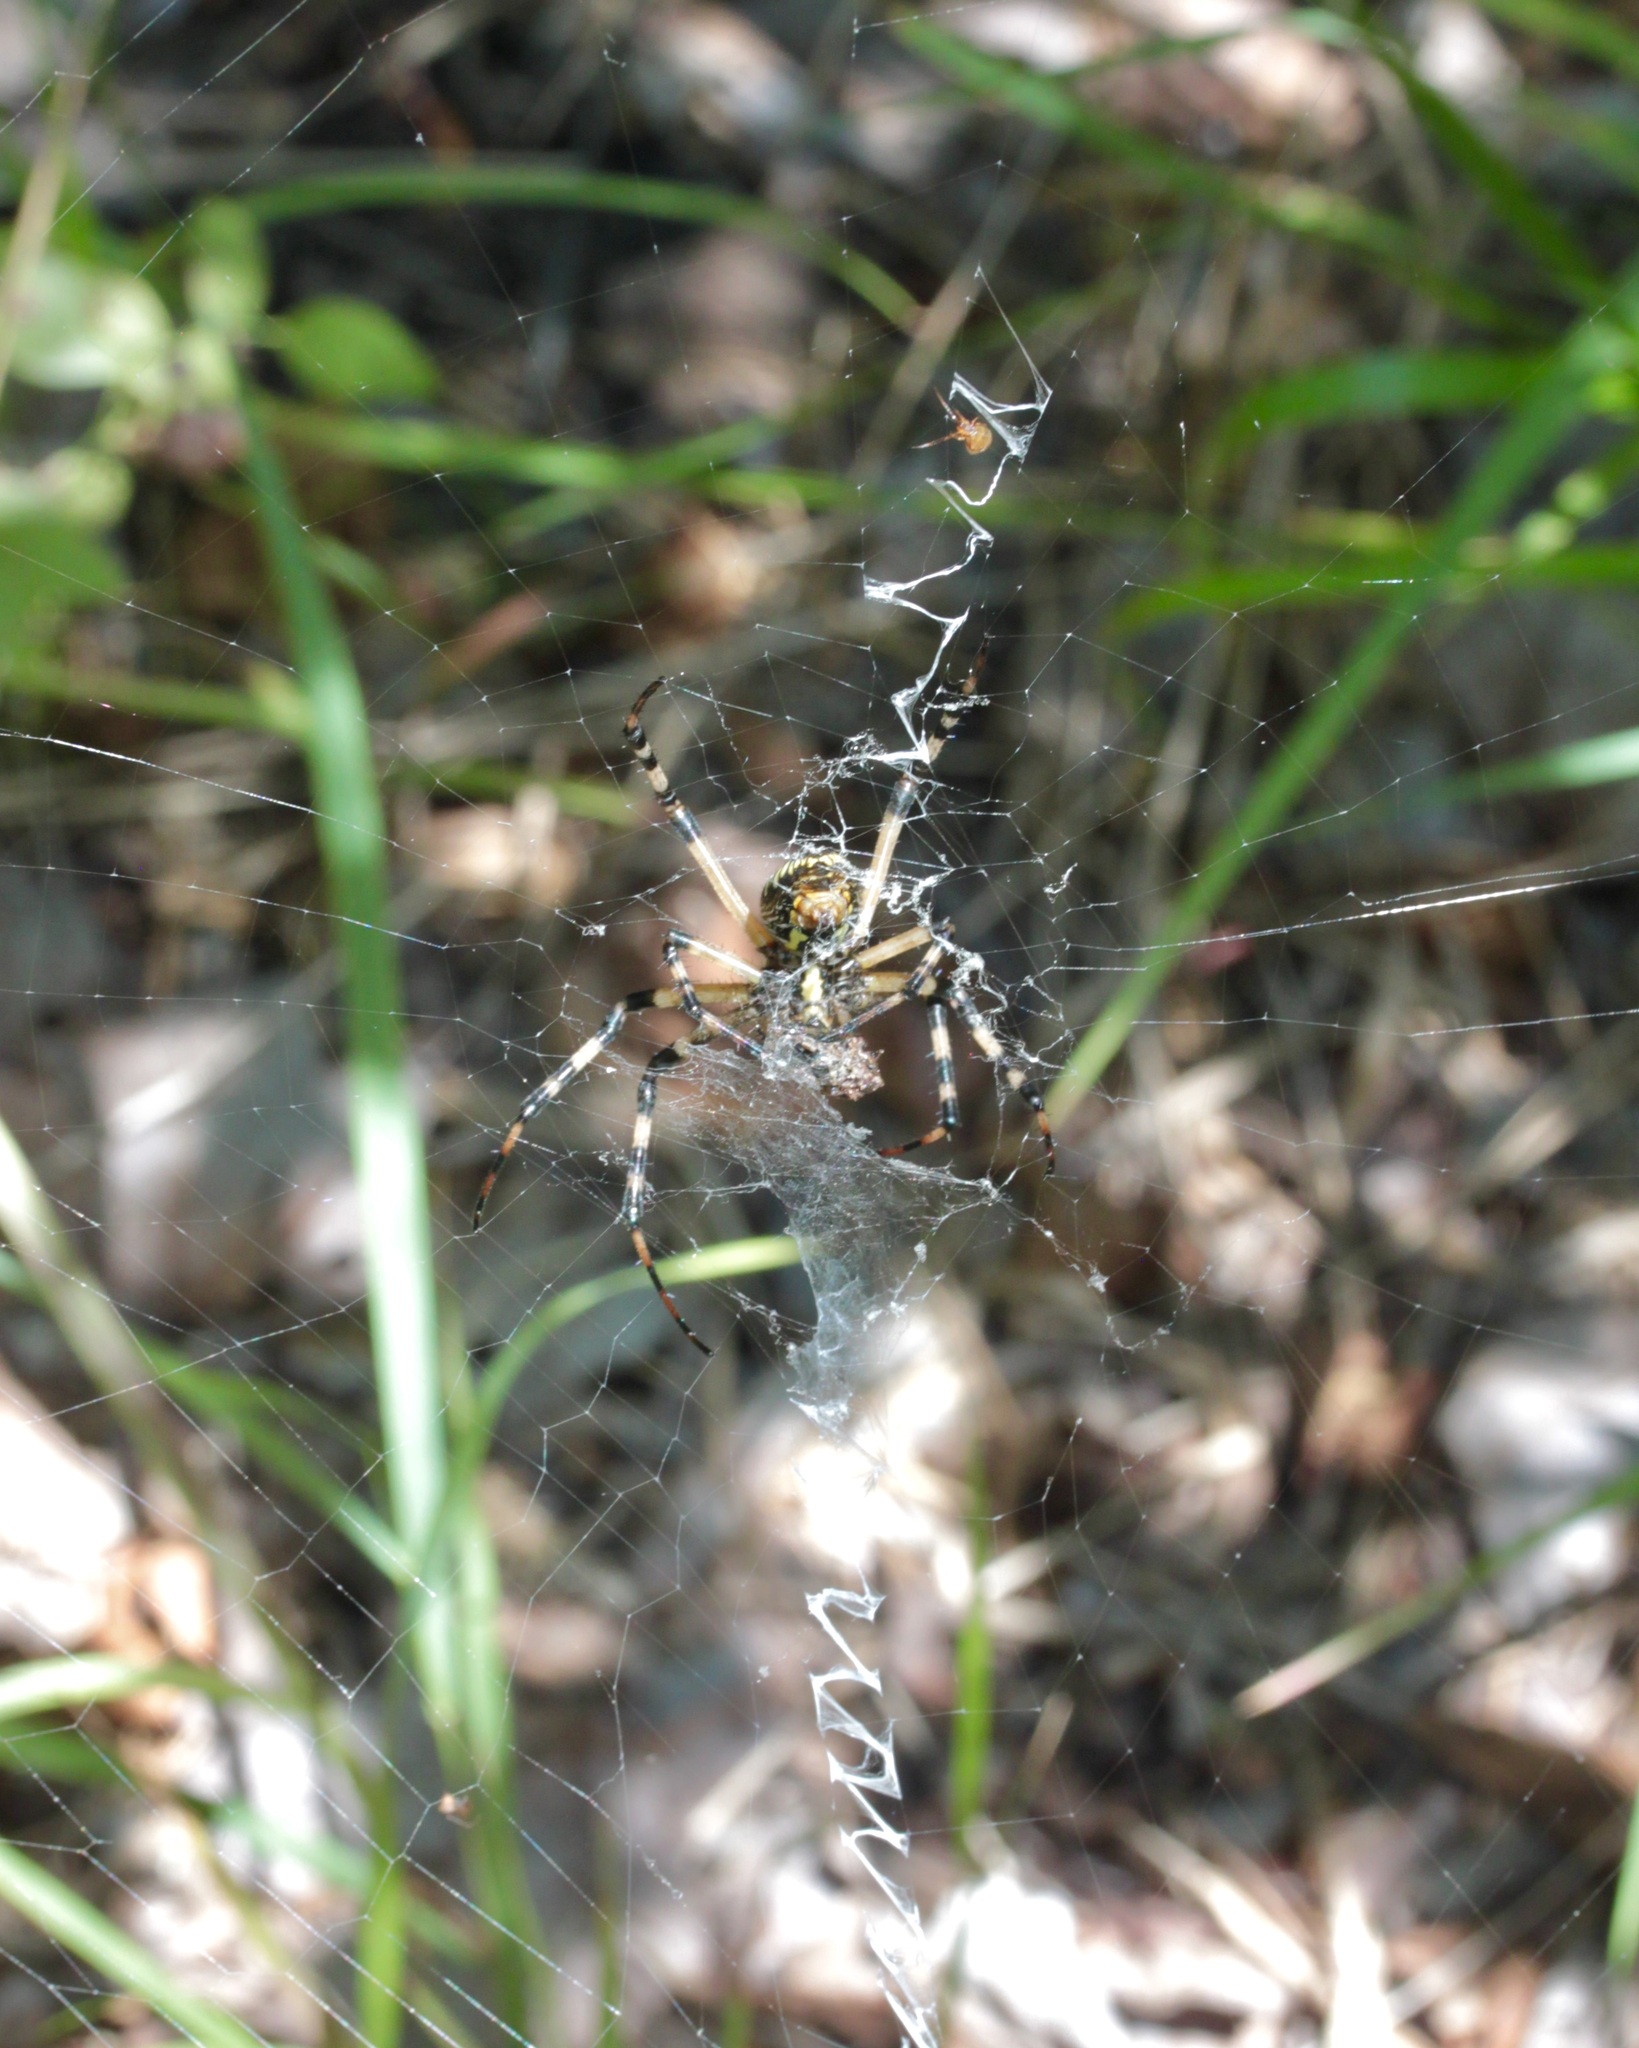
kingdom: Animalia
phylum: Arthropoda
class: Arachnida
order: Araneae
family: Araneidae
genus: Argiope
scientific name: Argiope aurantia
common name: Orb weavers
